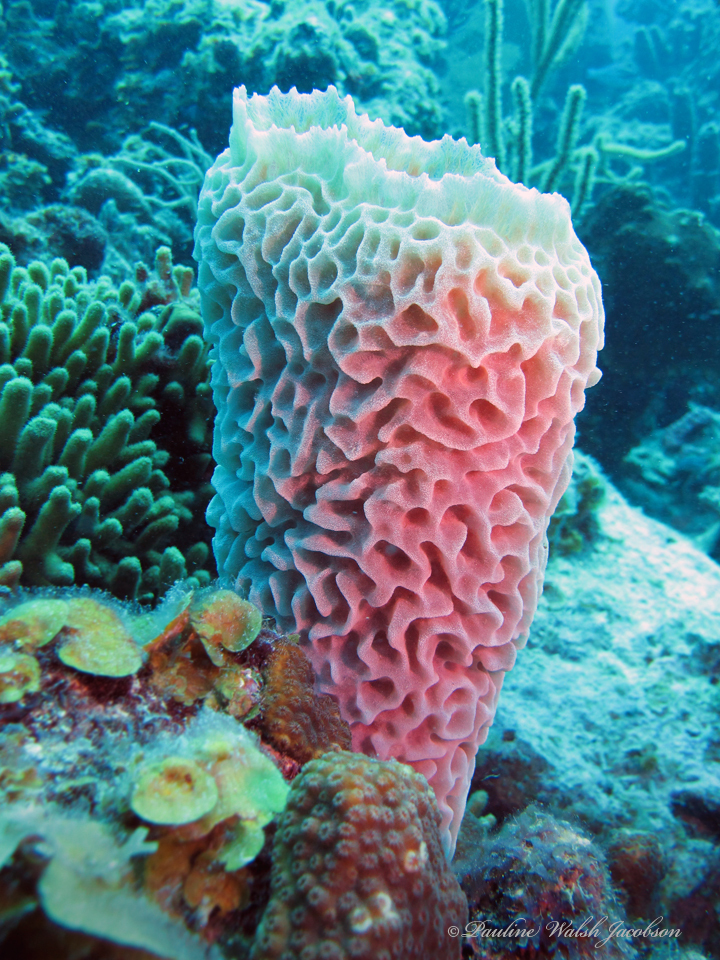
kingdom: Animalia
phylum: Porifera
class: Demospongiae
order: Haplosclerida
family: Callyspongiidae
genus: Callyspongia
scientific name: Callyspongia plicifera
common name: Azure vase sponge
